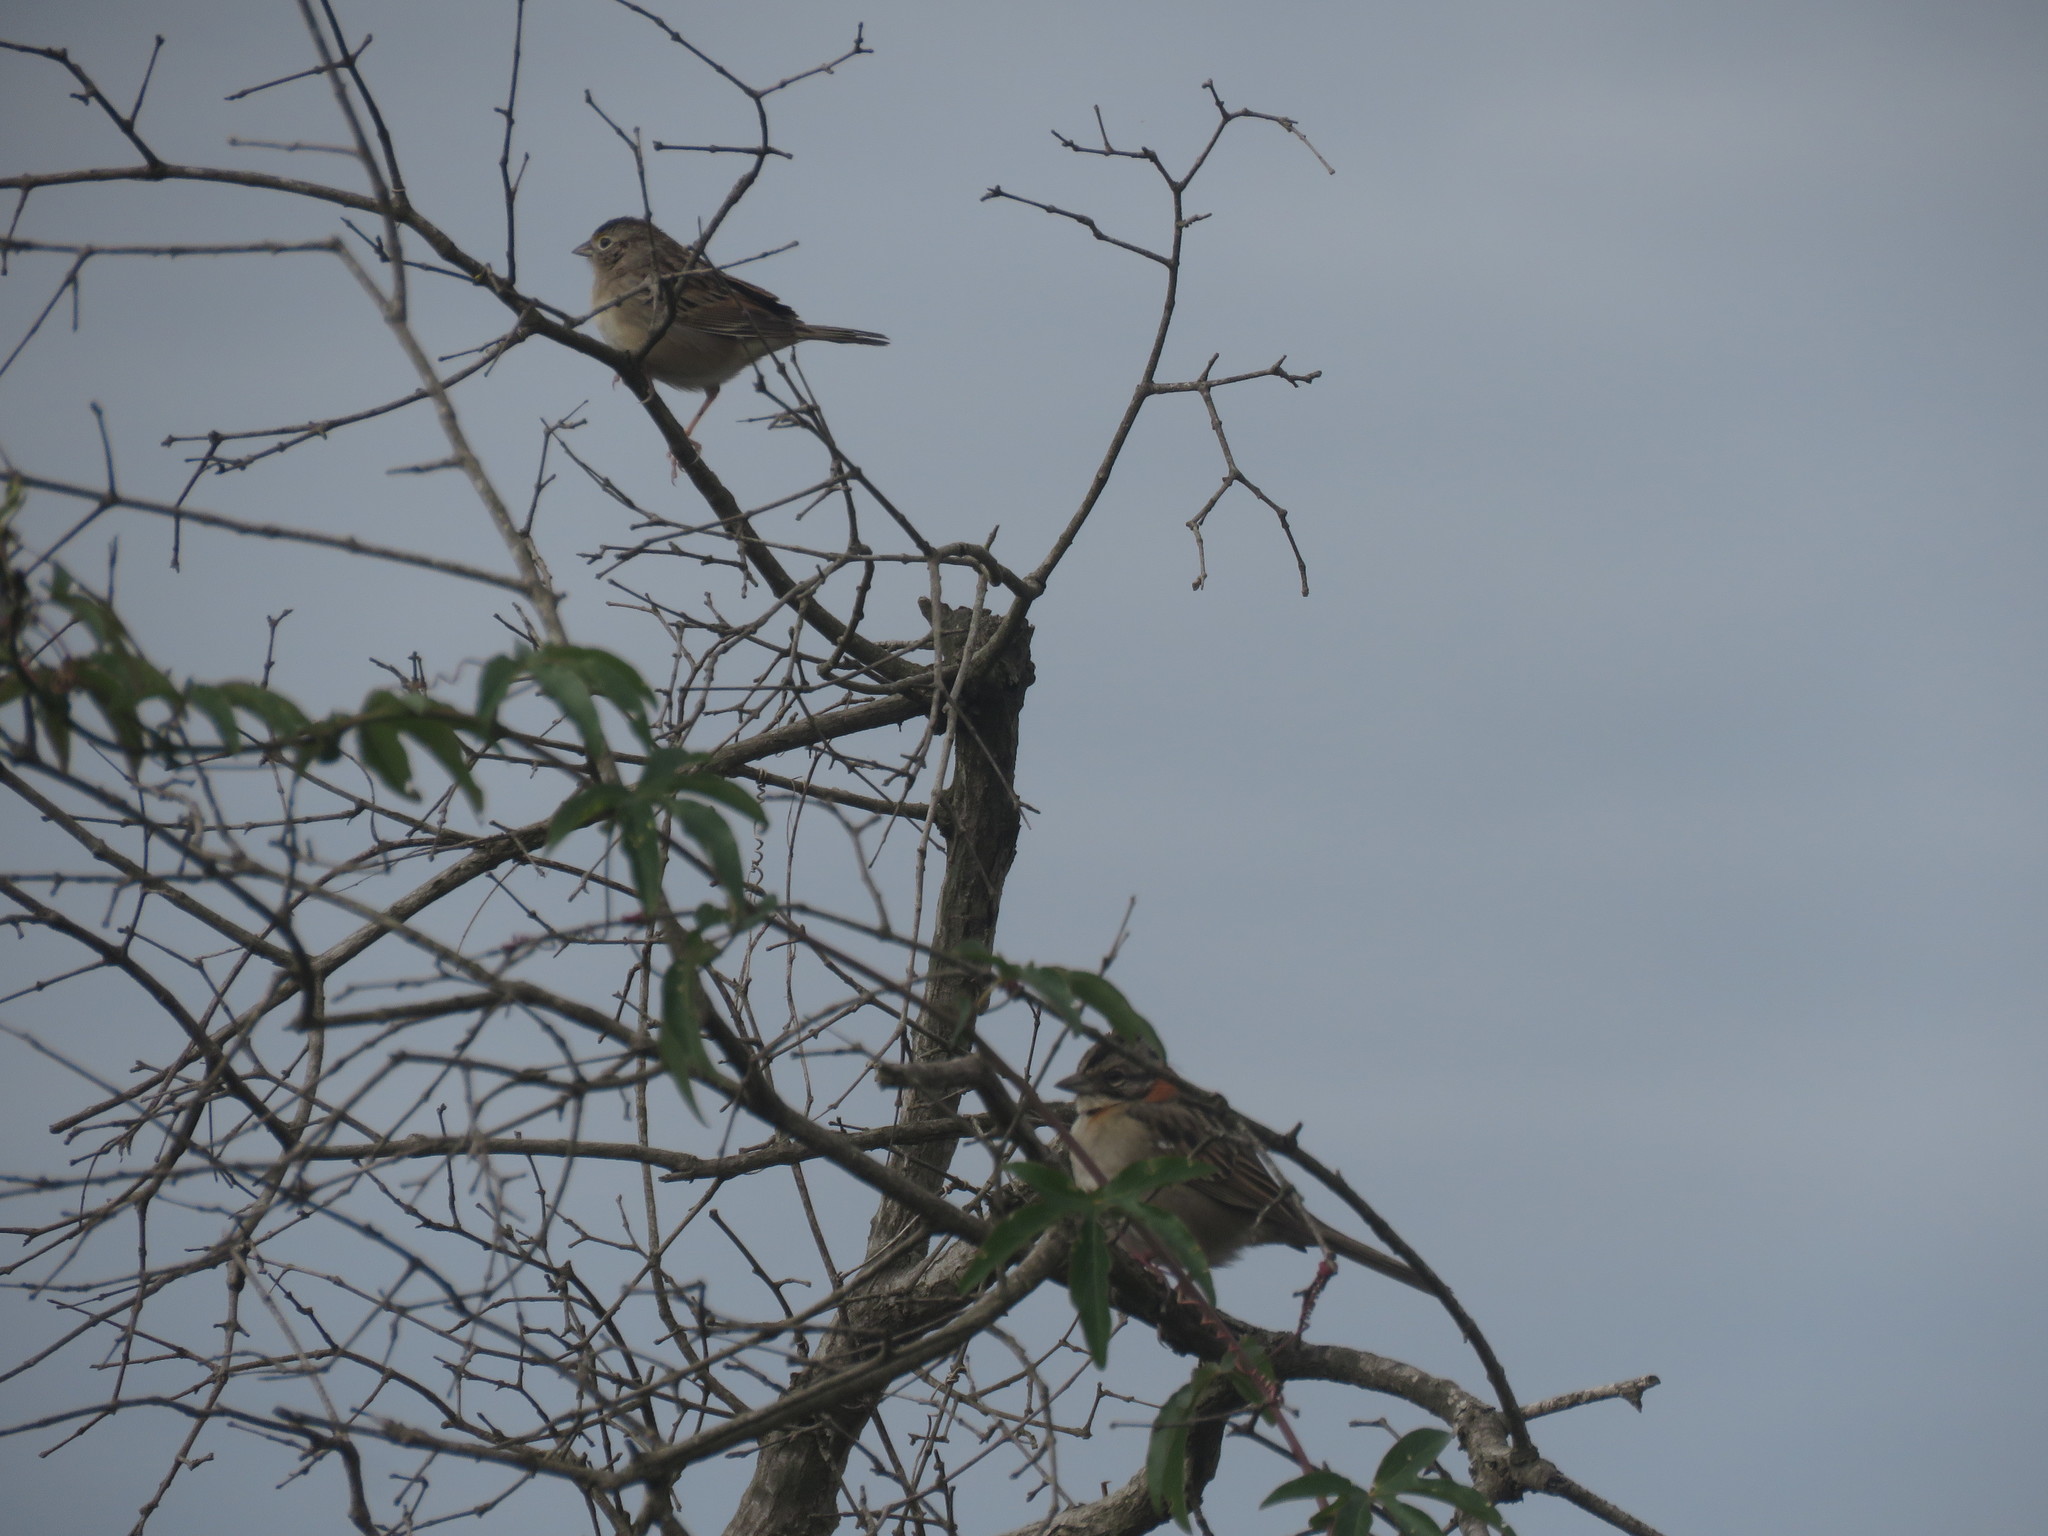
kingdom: Animalia
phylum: Chordata
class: Aves
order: Passeriformes
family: Passerellidae
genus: Ammodramus
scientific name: Ammodramus humeralis
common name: Grassland sparrow
